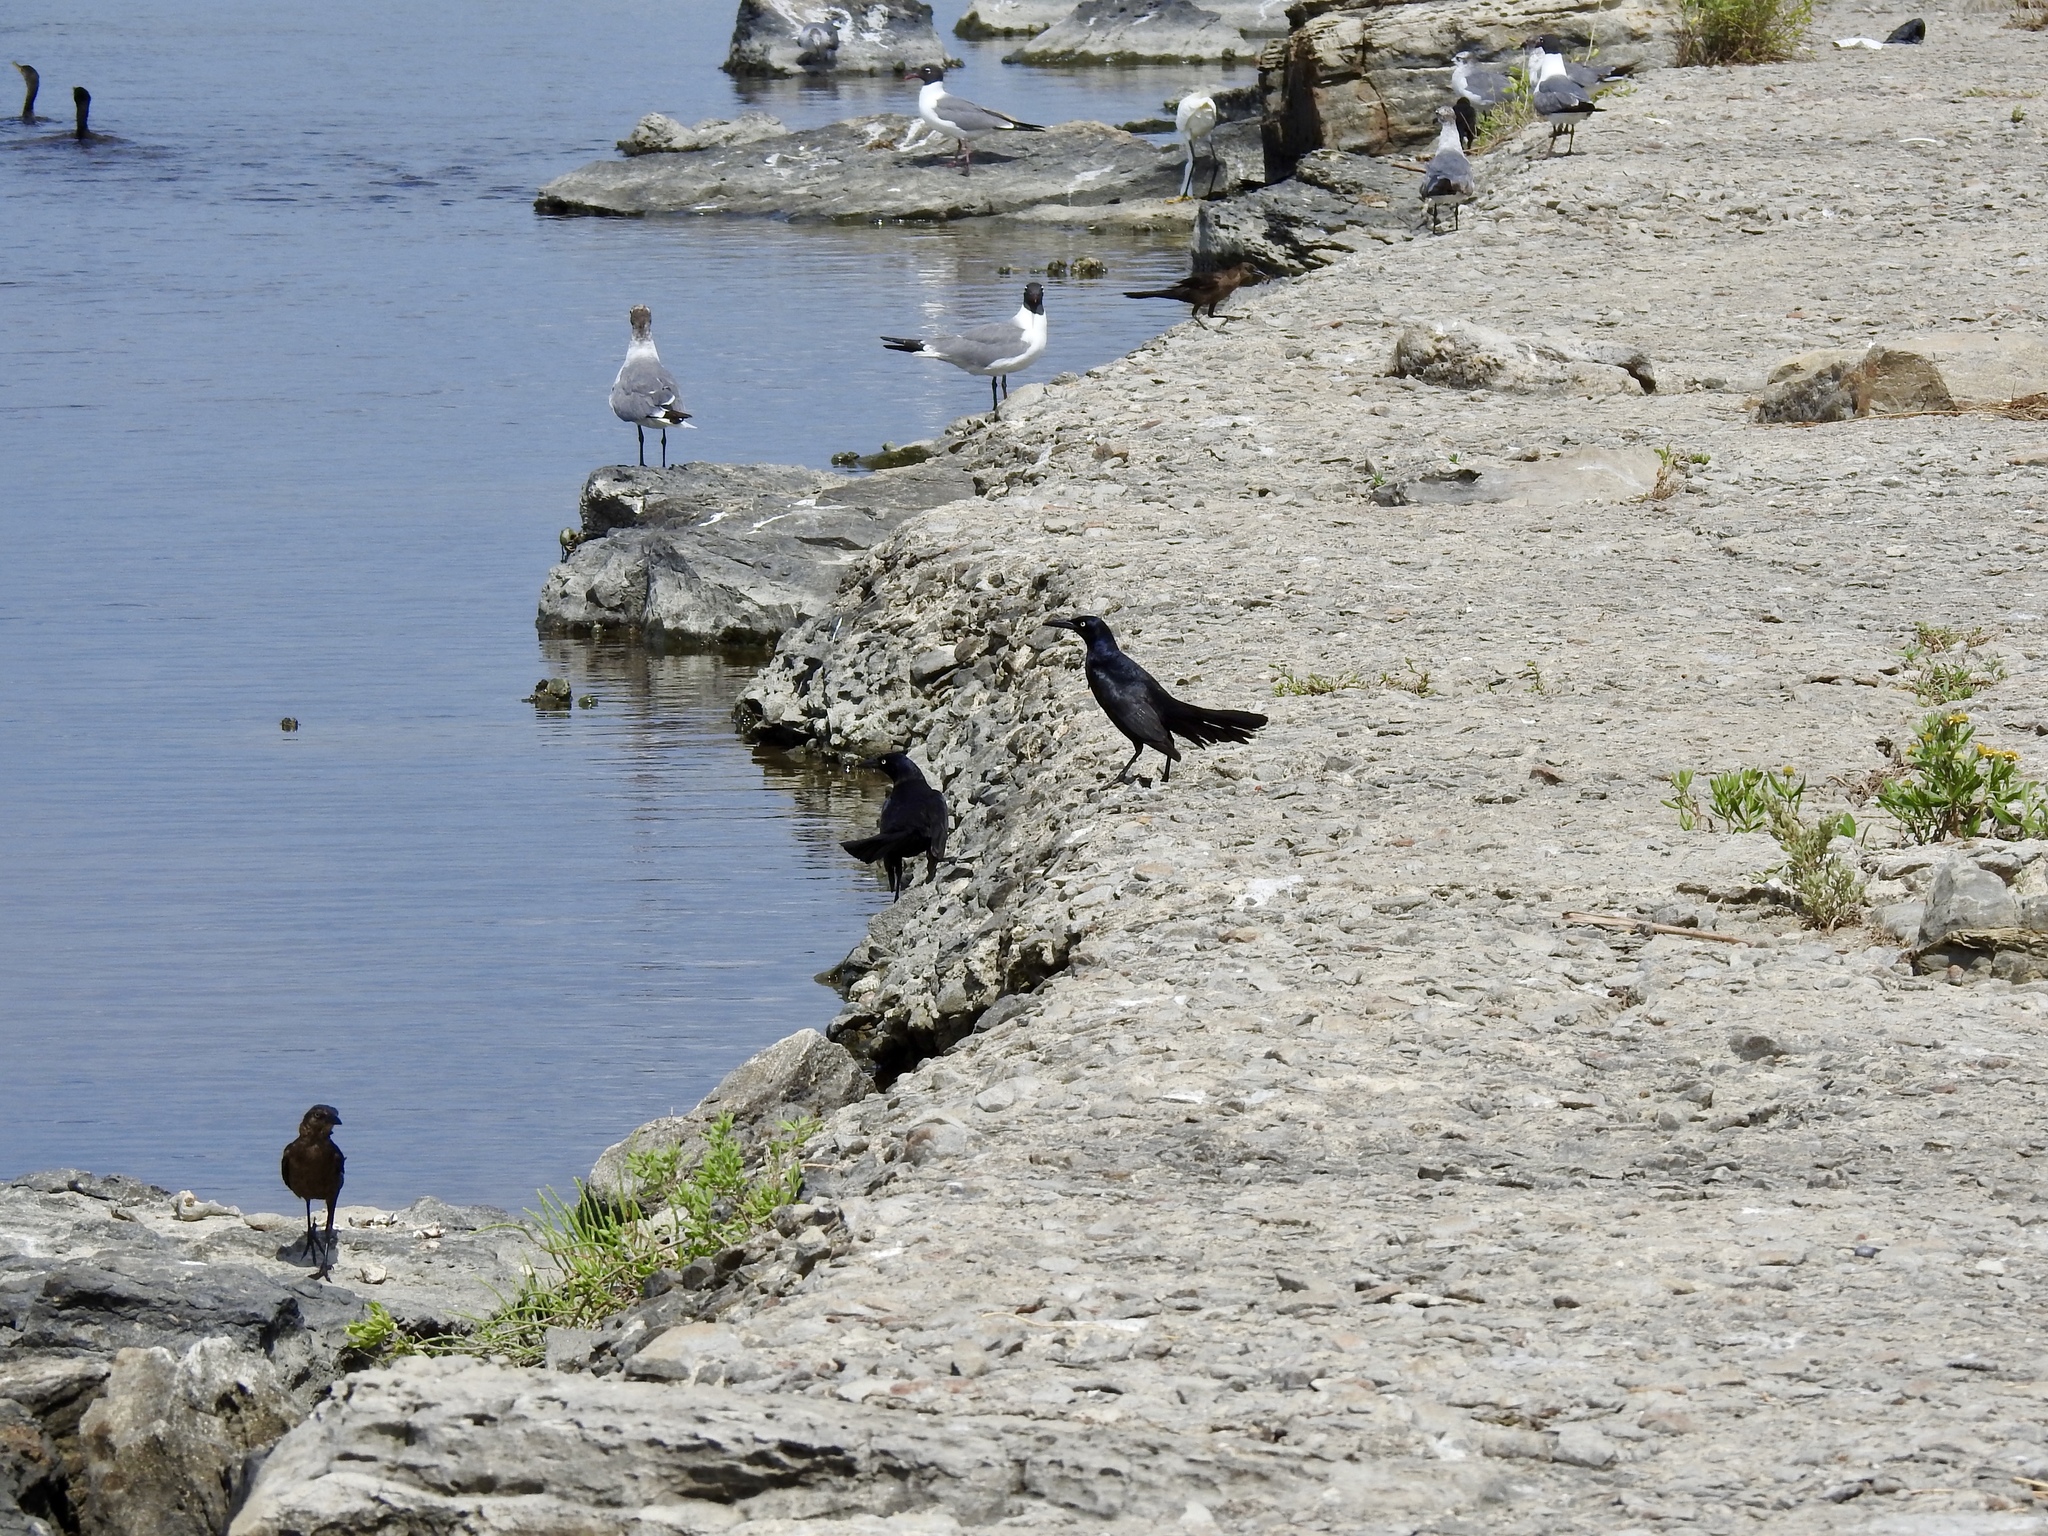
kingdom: Animalia
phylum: Chordata
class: Aves
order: Passeriformes
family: Icteridae
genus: Quiscalus
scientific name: Quiscalus mexicanus
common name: Great-tailed grackle
